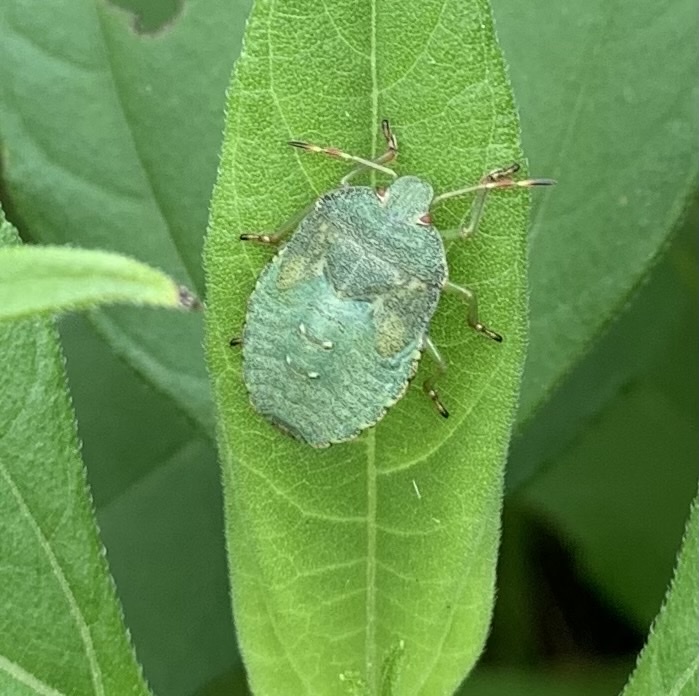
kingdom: Animalia
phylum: Arthropoda
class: Insecta
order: Hemiptera
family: Pentatomidae
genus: Palomena
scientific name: Palomena prasina
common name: Green shieldbug
